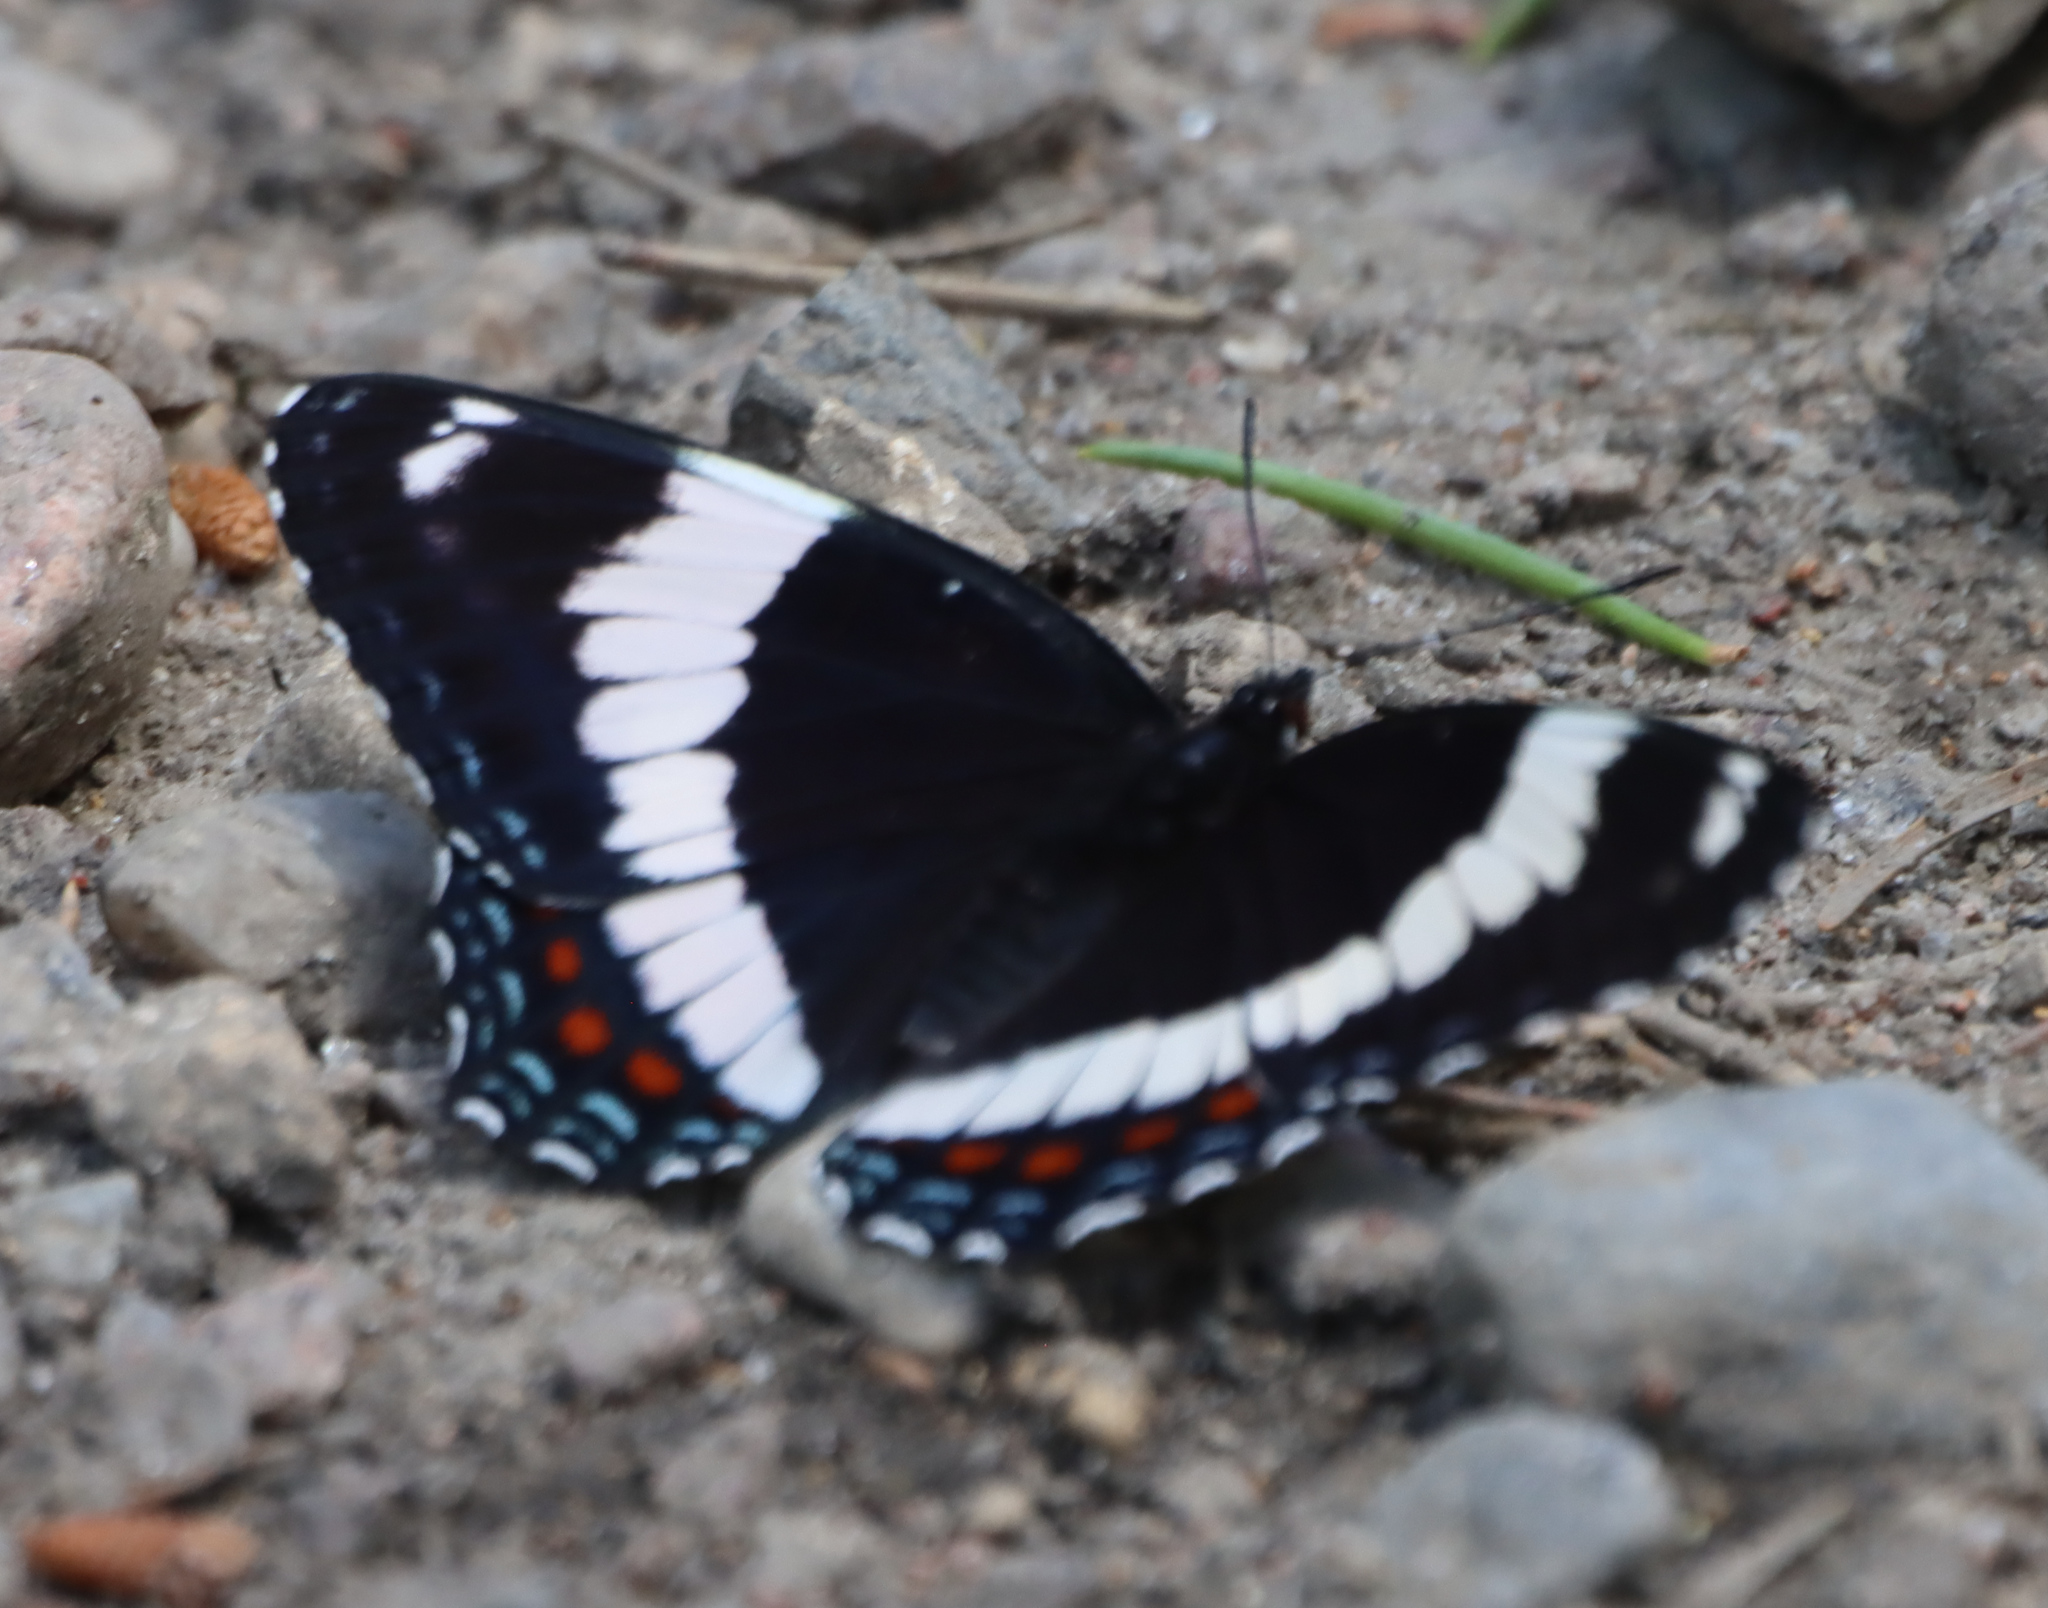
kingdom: Animalia
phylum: Arthropoda
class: Insecta
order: Lepidoptera
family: Nymphalidae
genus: Limenitis
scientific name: Limenitis arthemis
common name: Red-spotted admiral
